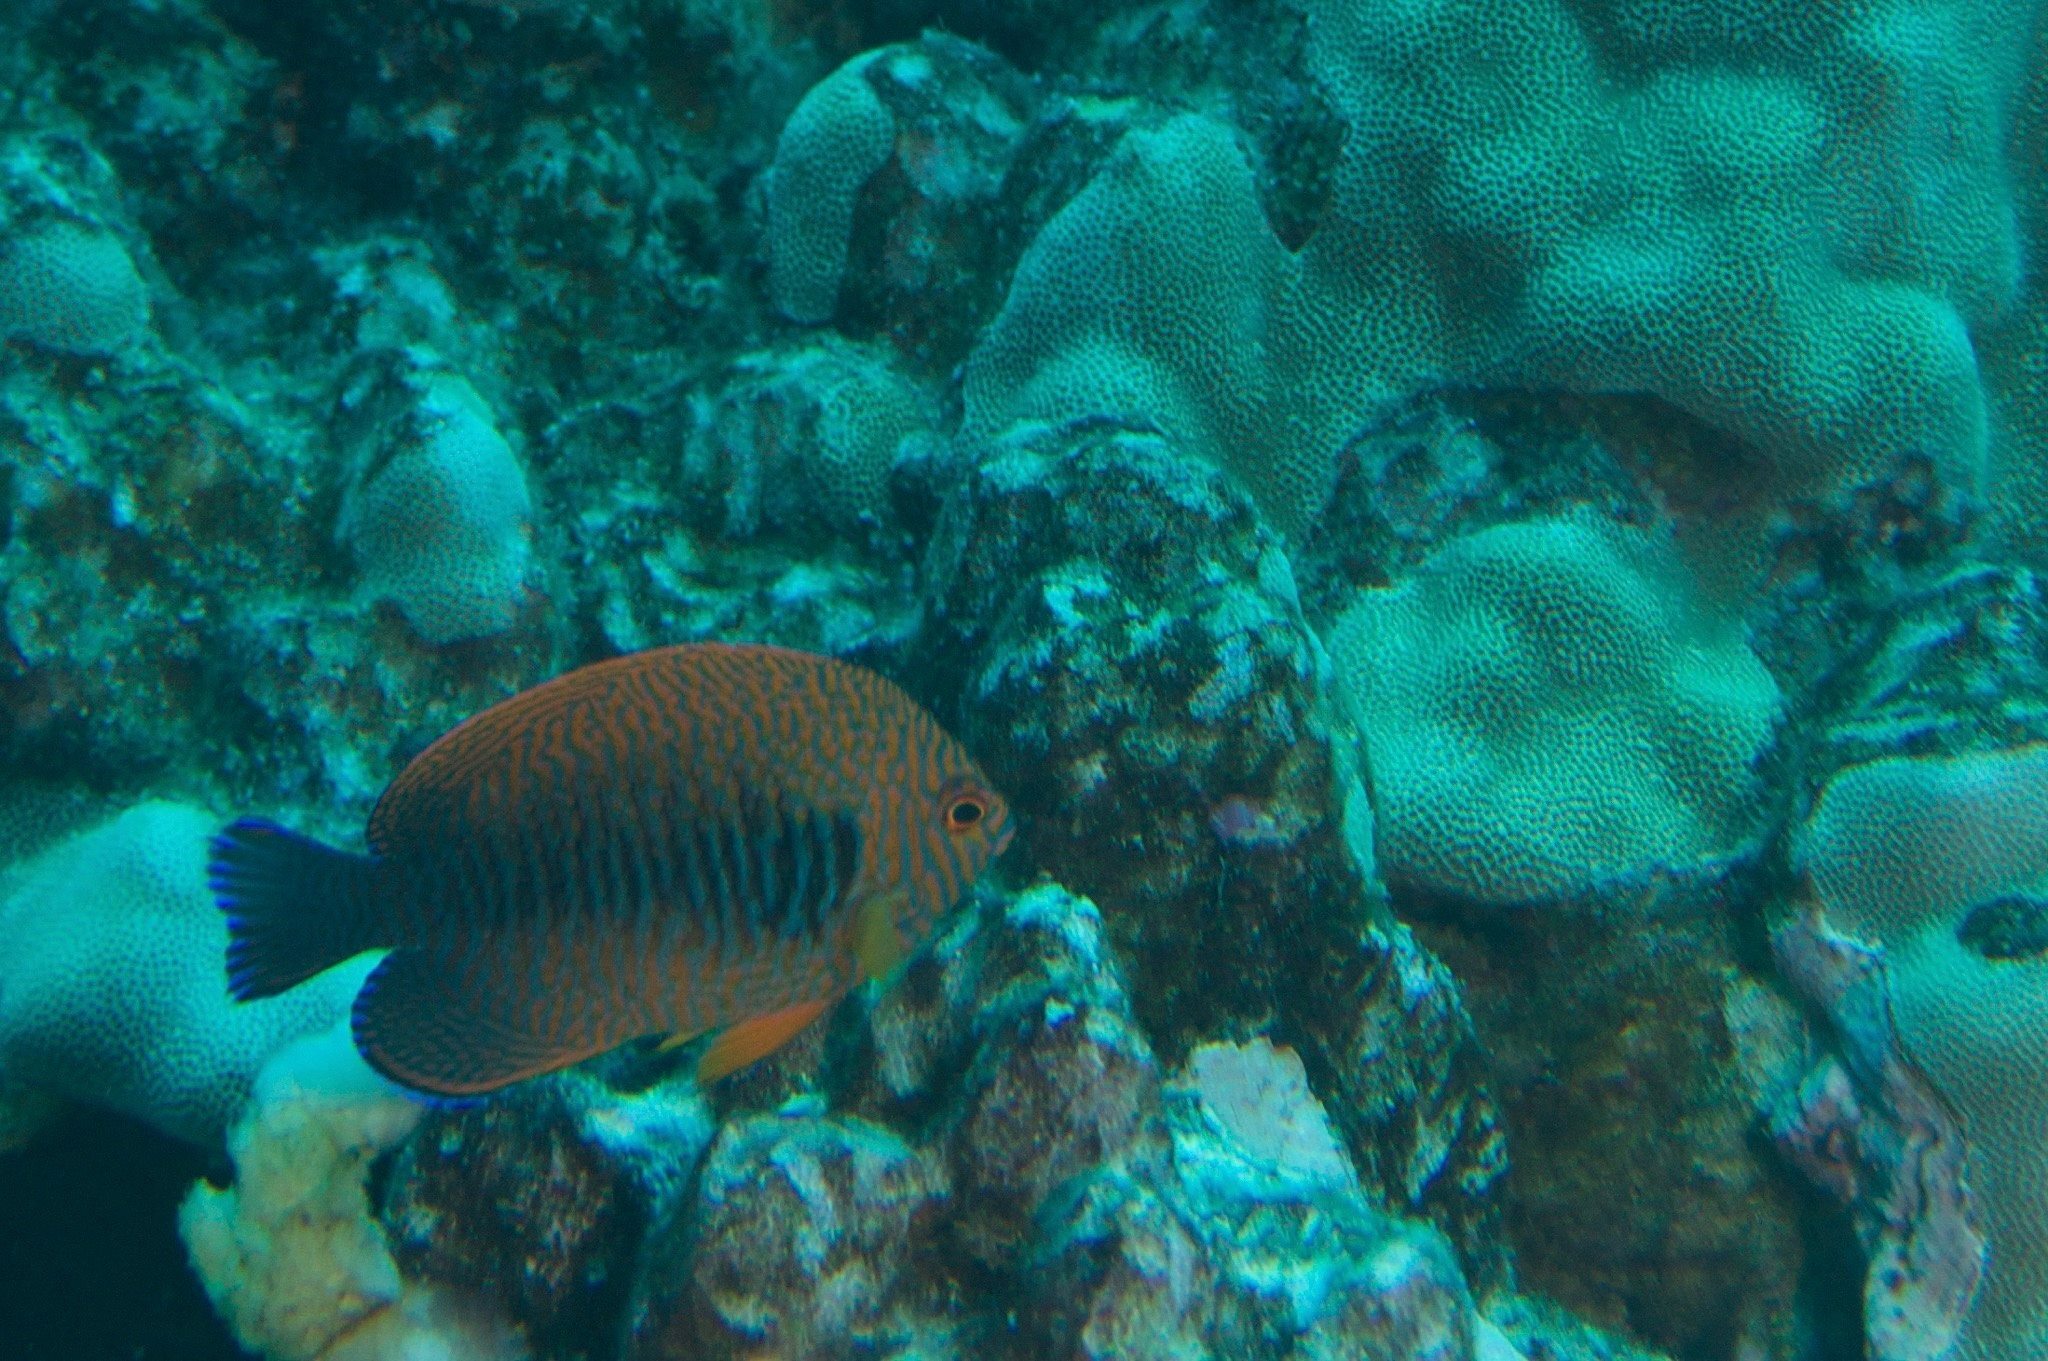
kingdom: Animalia
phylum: Chordata
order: Perciformes
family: Pomacanthidae
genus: Centropyge
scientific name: Centropyge potteri
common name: Potter's angelfish
